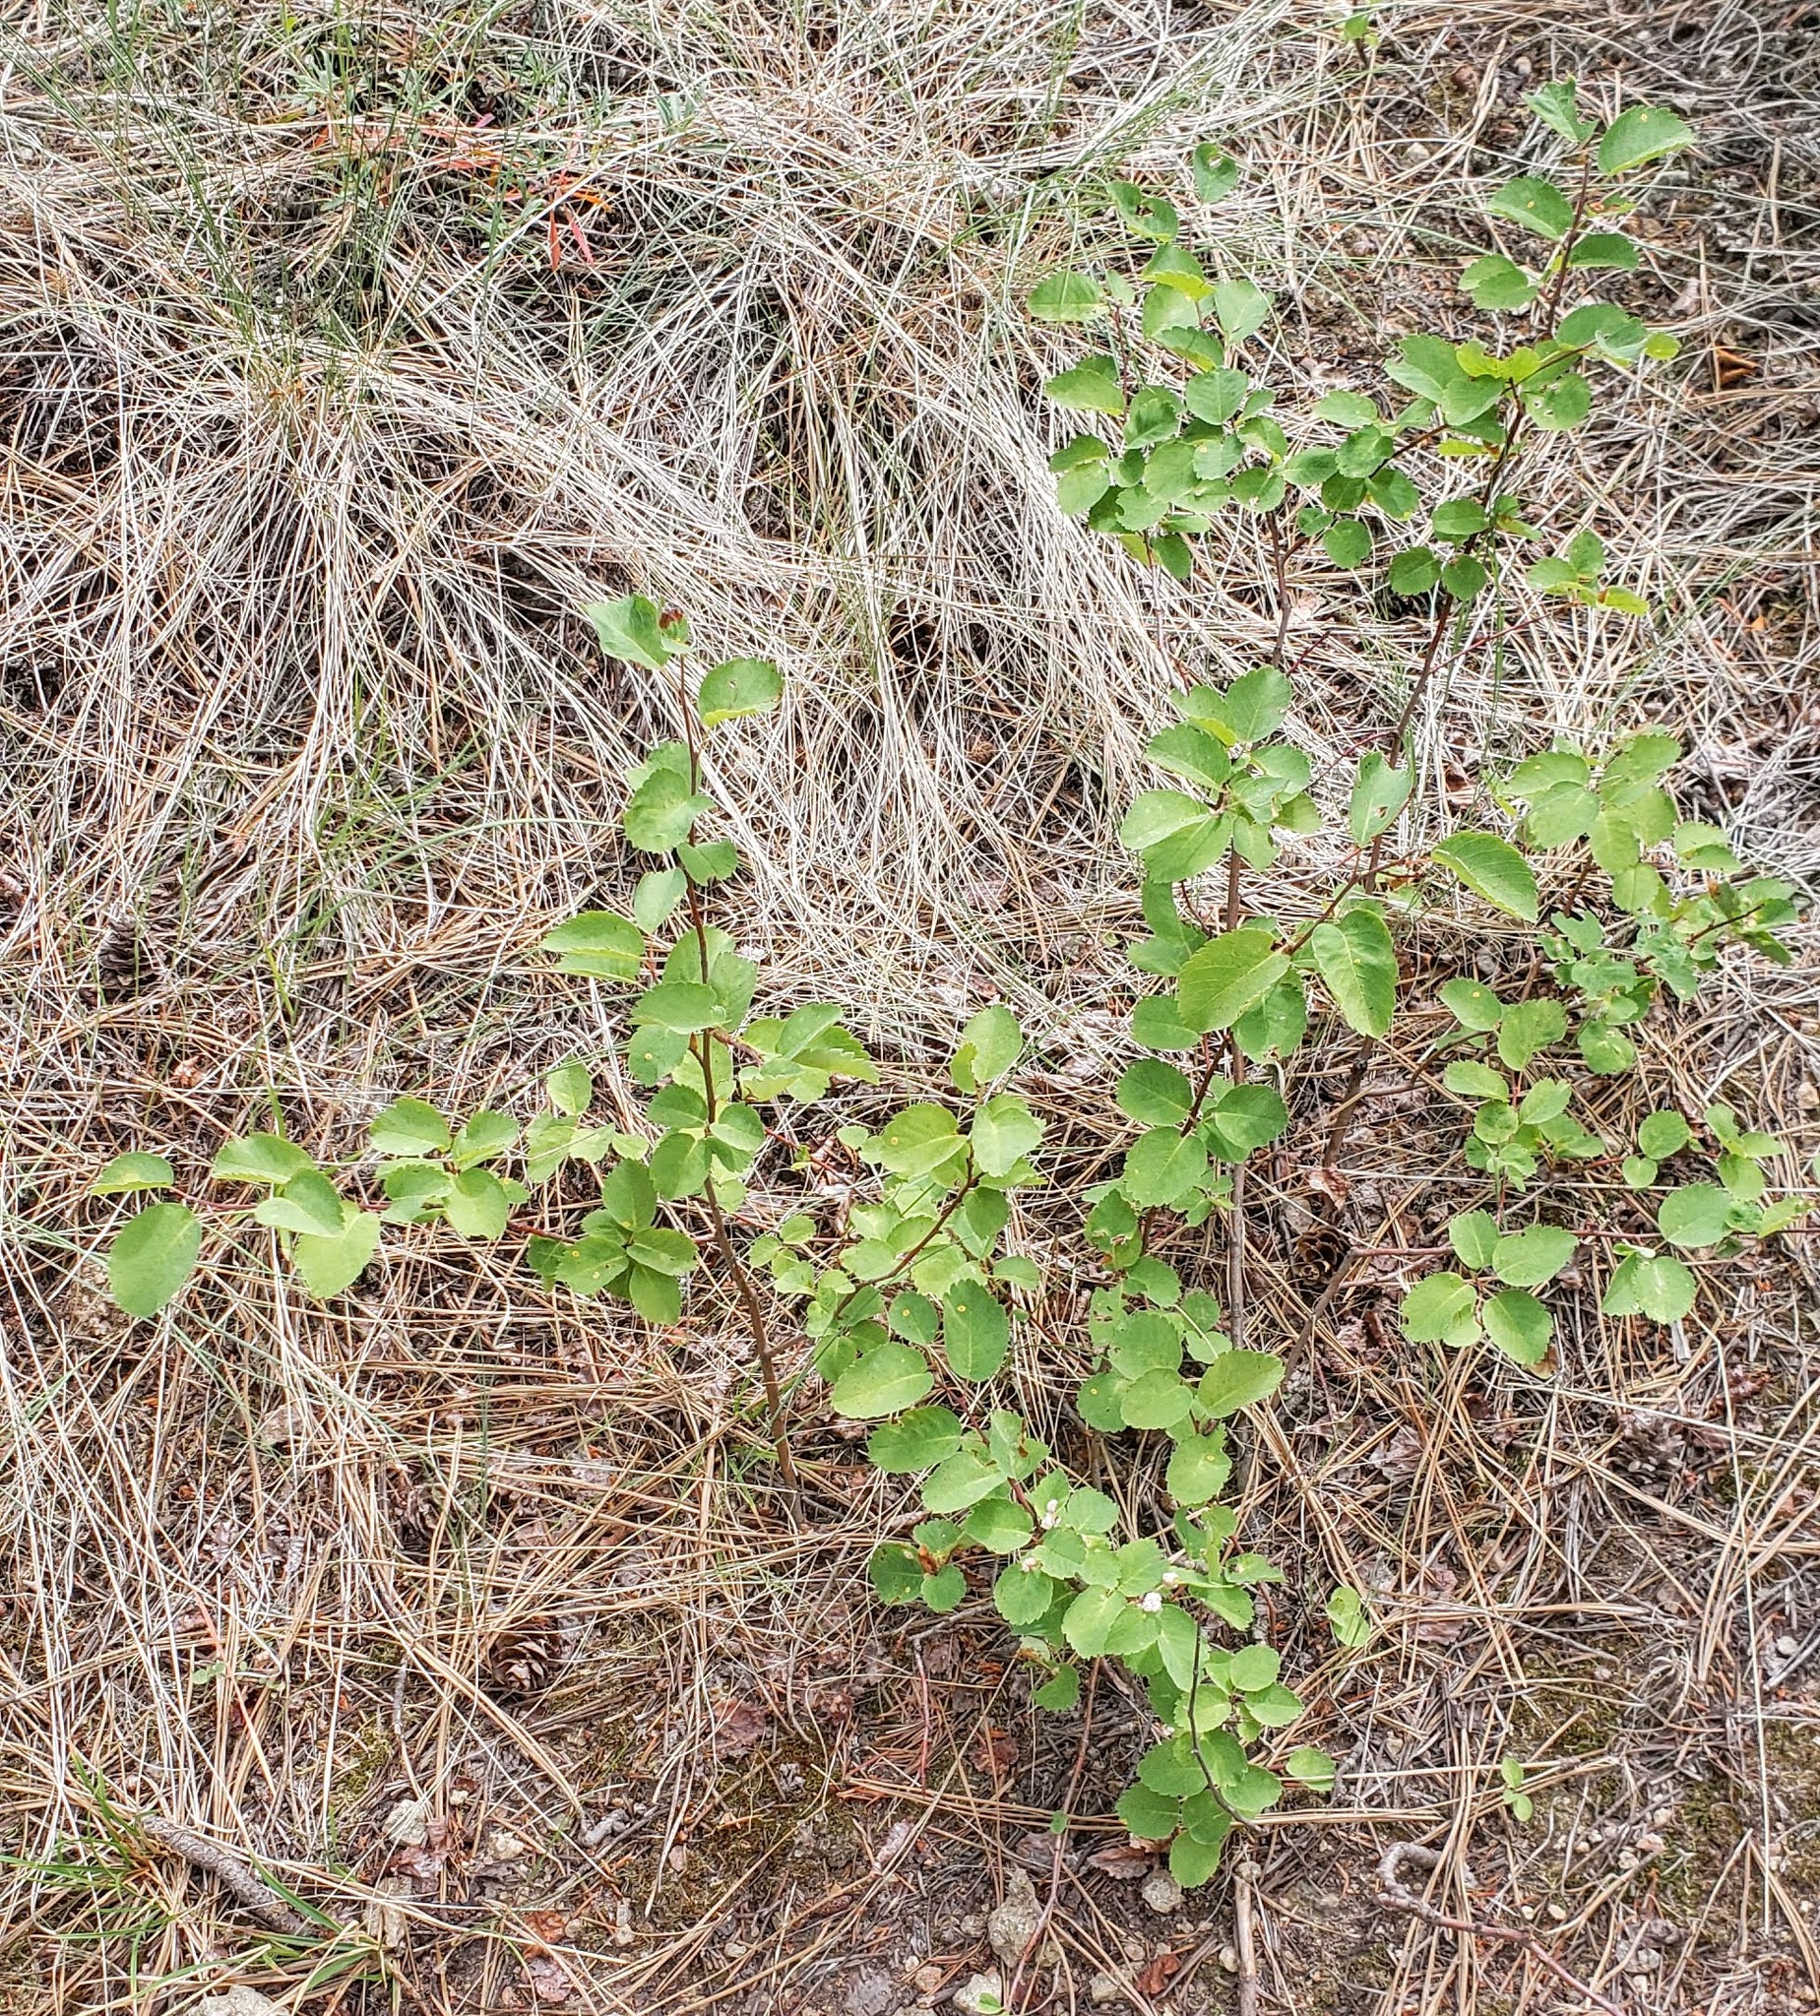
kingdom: Plantae
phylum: Tracheophyta
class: Magnoliopsida
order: Rosales
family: Rosaceae
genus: Amelanchier
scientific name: Amelanchier alnifolia
